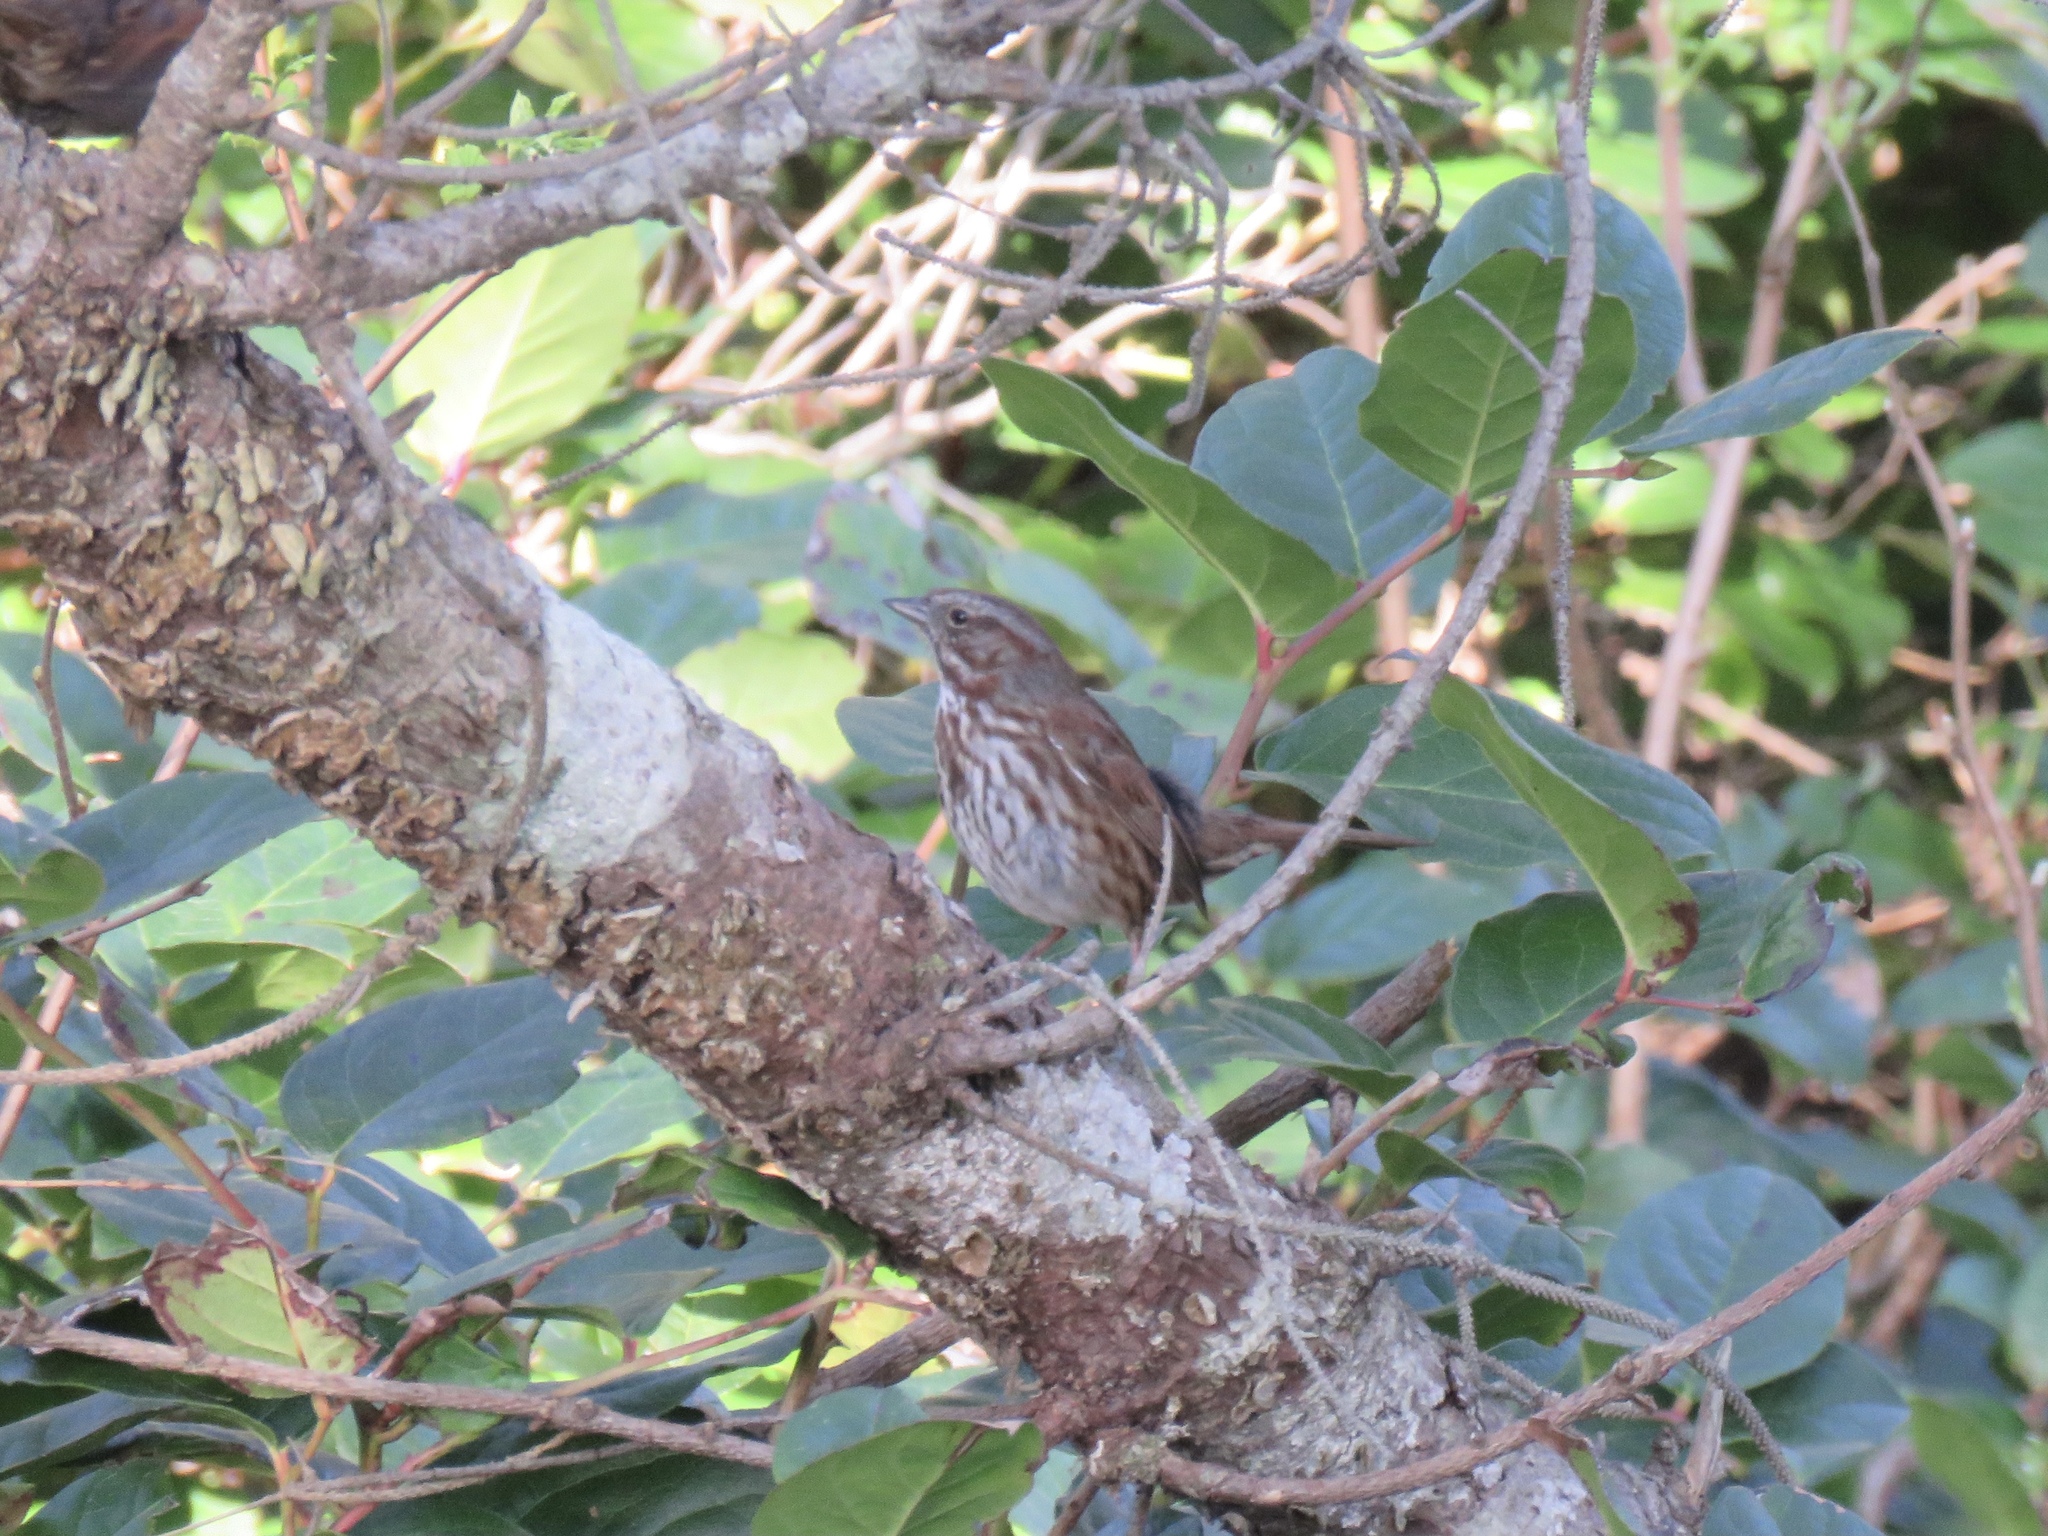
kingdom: Animalia
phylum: Chordata
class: Aves
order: Passeriformes
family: Passerellidae
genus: Melospiza
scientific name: Melospiza melodia
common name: Song sparrow
